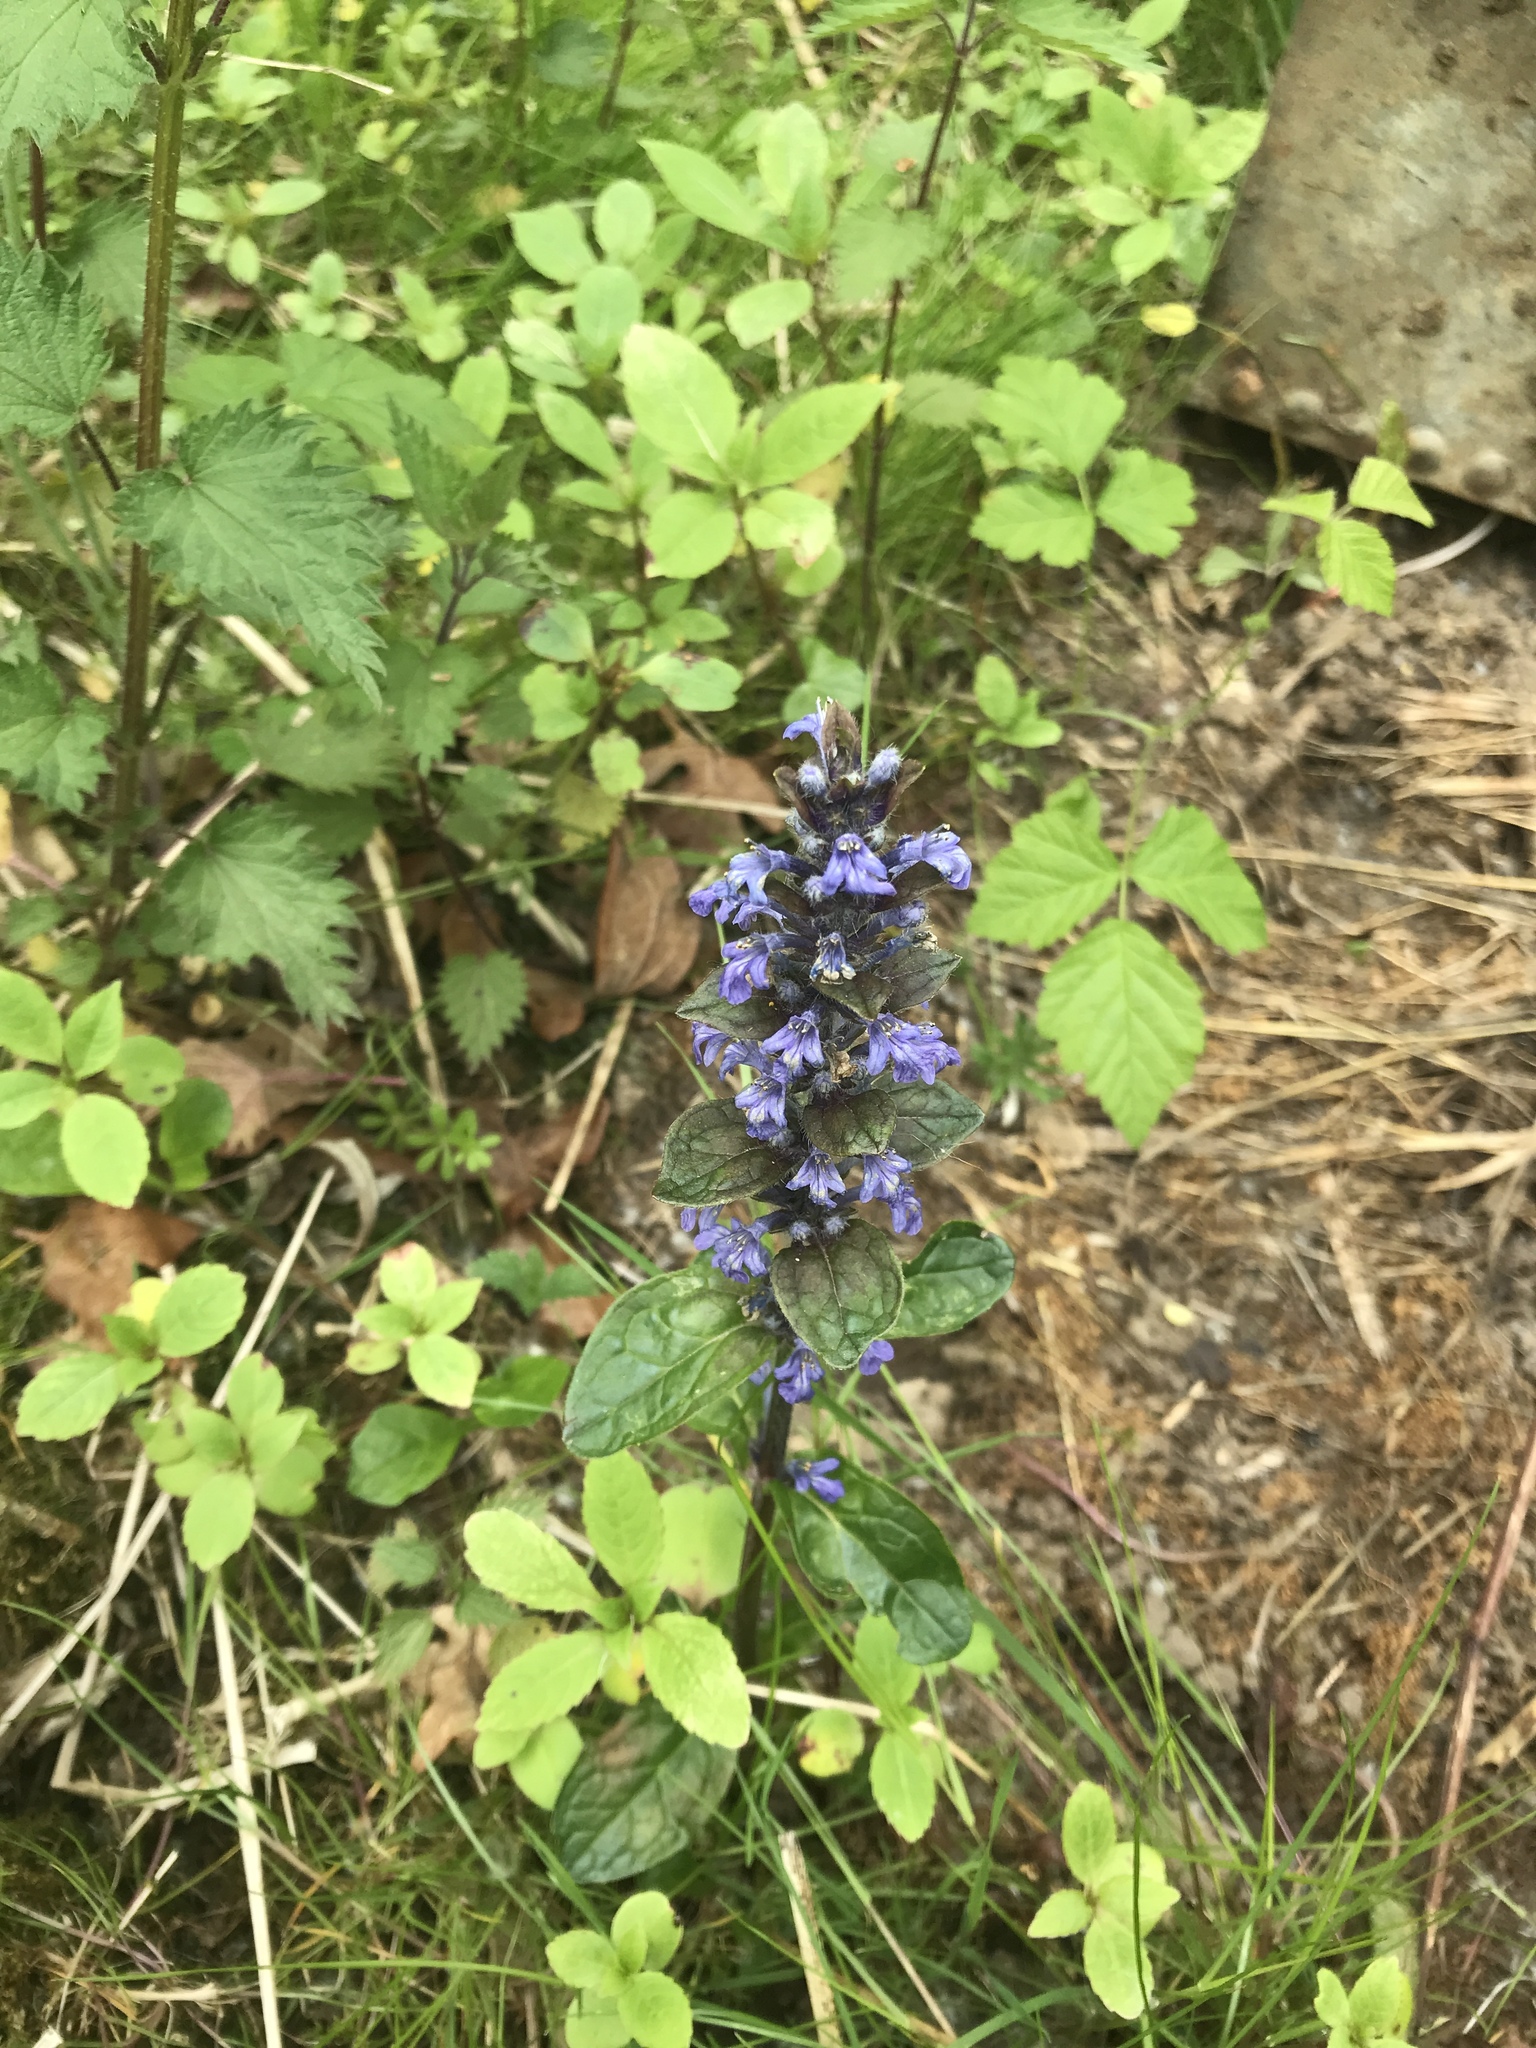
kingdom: Plantae
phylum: Tracheophyta
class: Magnoliopsida
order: Lamiales
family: Lamiaceae
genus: Ajuga
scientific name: Ajuga reptans
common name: Bugle
